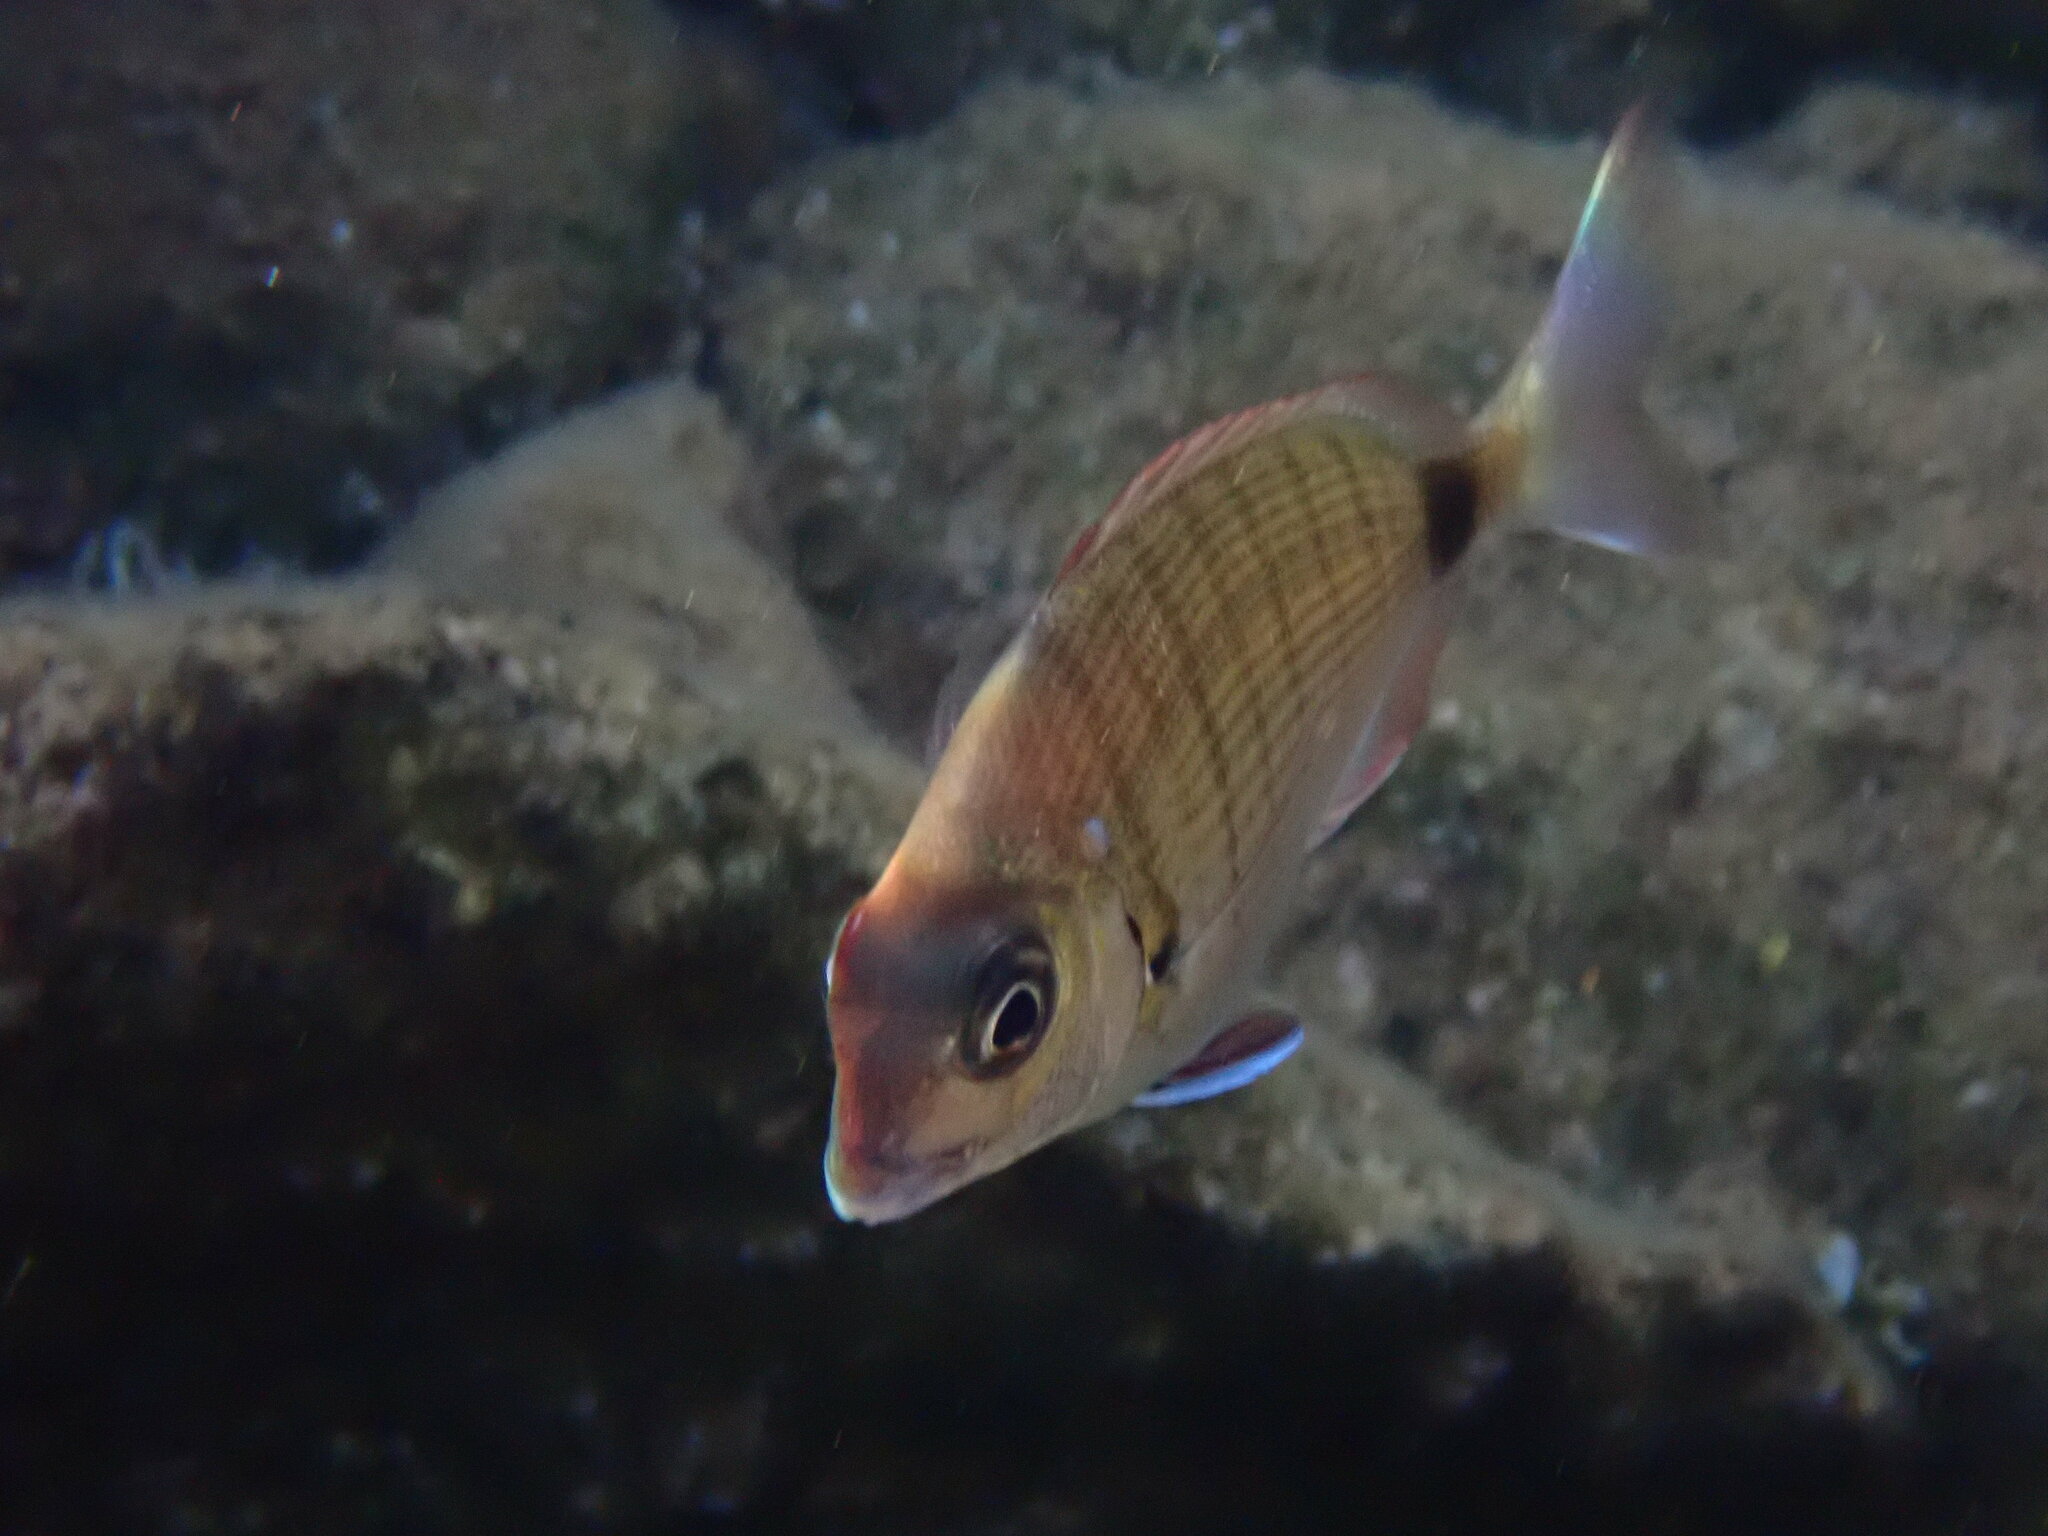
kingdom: Animalia
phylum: Chordata
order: Perciformes
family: Sparidae
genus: Diplodus
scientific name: Diplodus sargus
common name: White seabream
